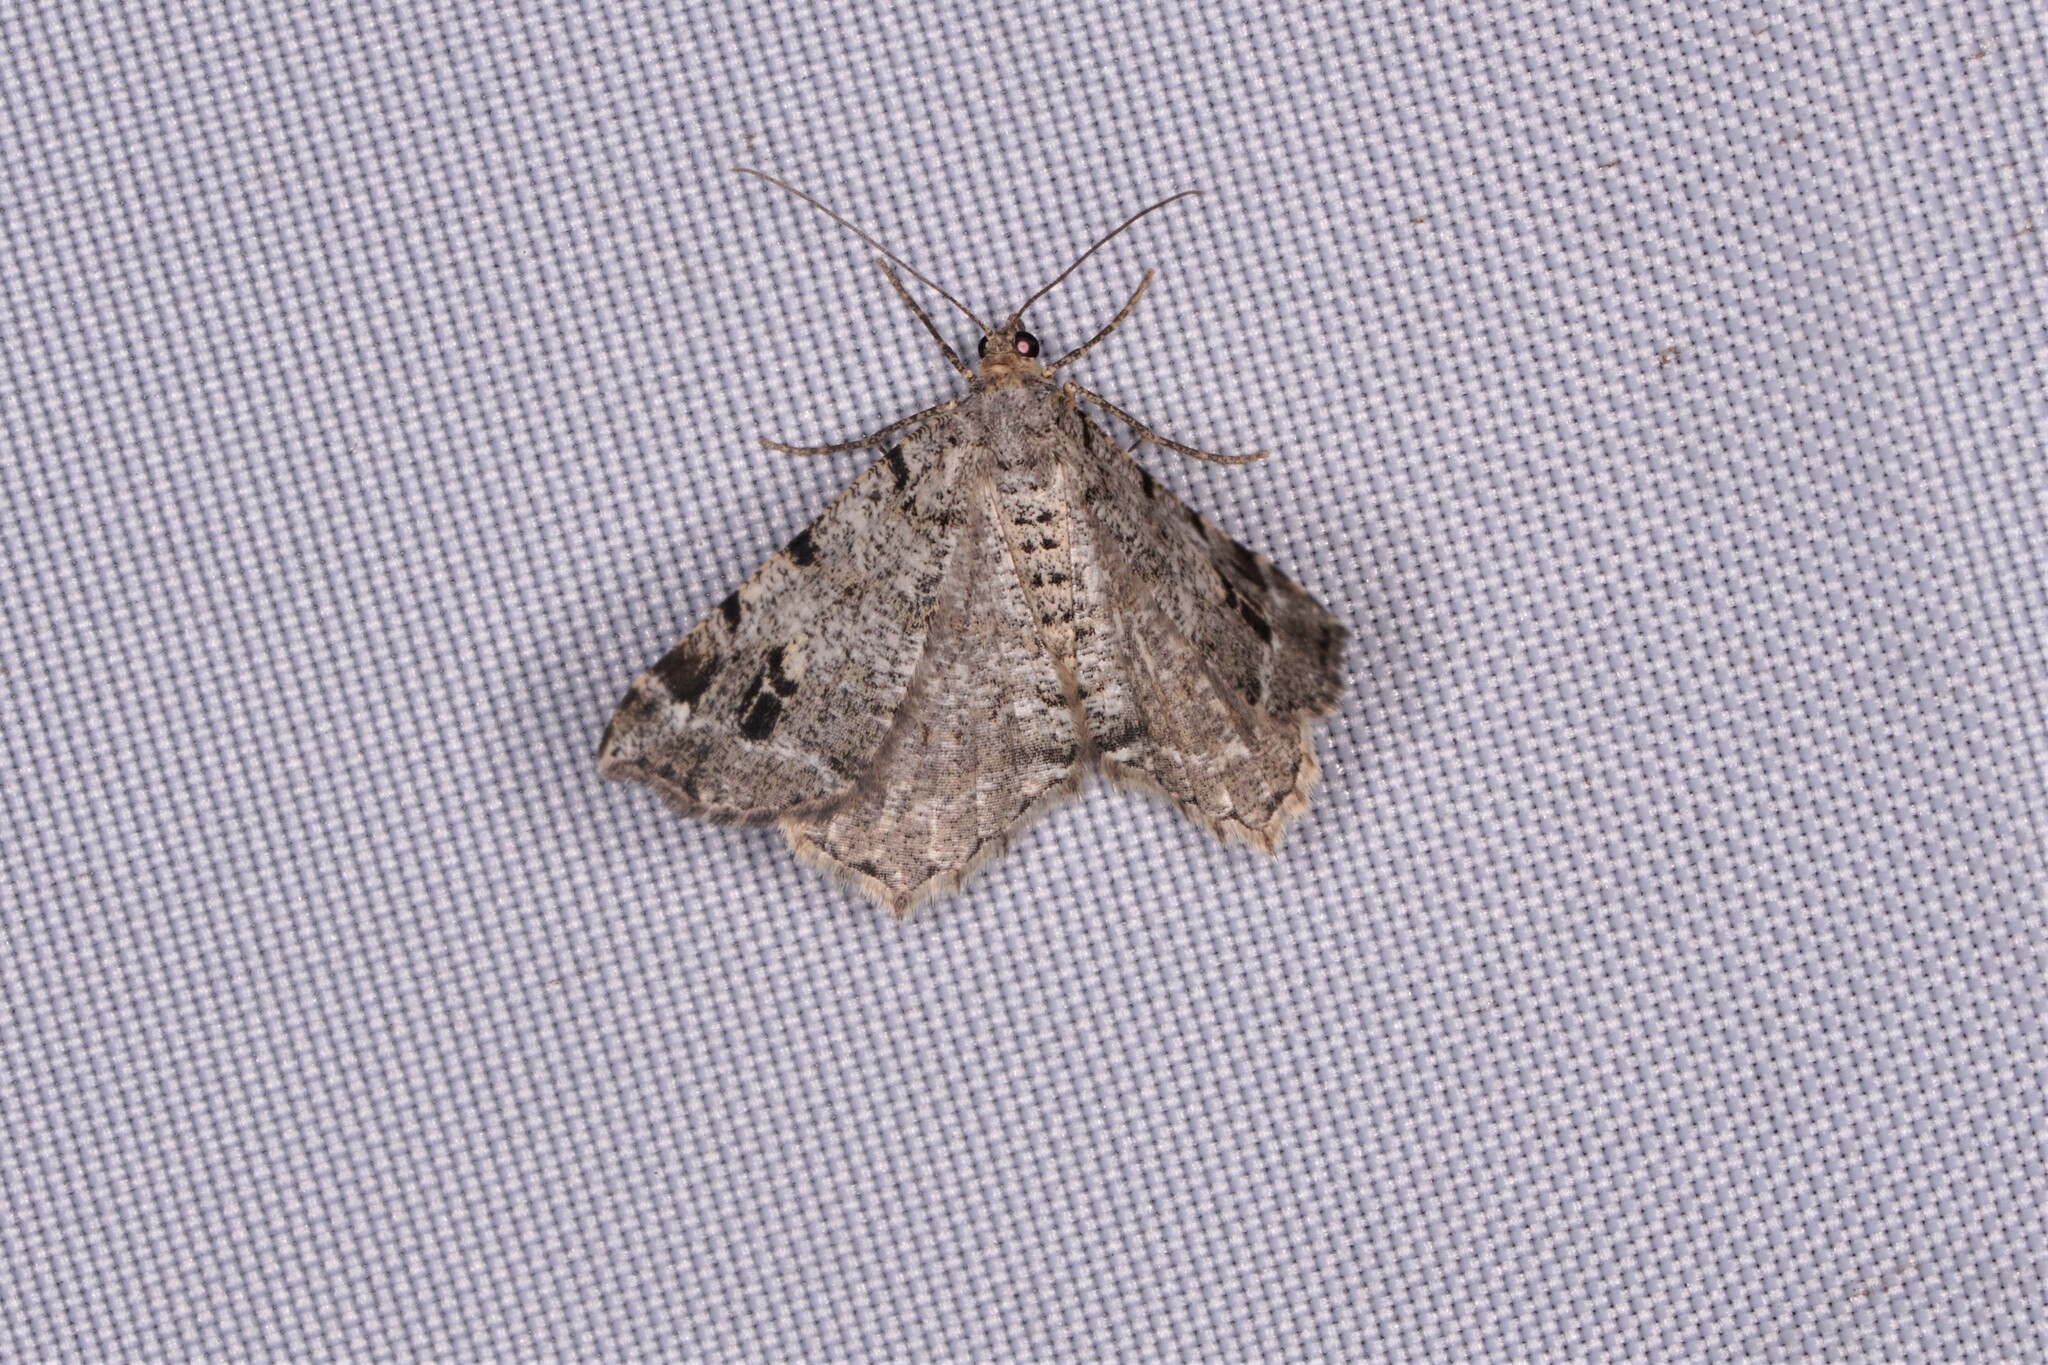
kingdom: Animalia
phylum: Arthropoda
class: Insecta
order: Lepidoptera
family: Geometridae
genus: Macaria
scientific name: Macaria pinistrobata
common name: White pine angle
